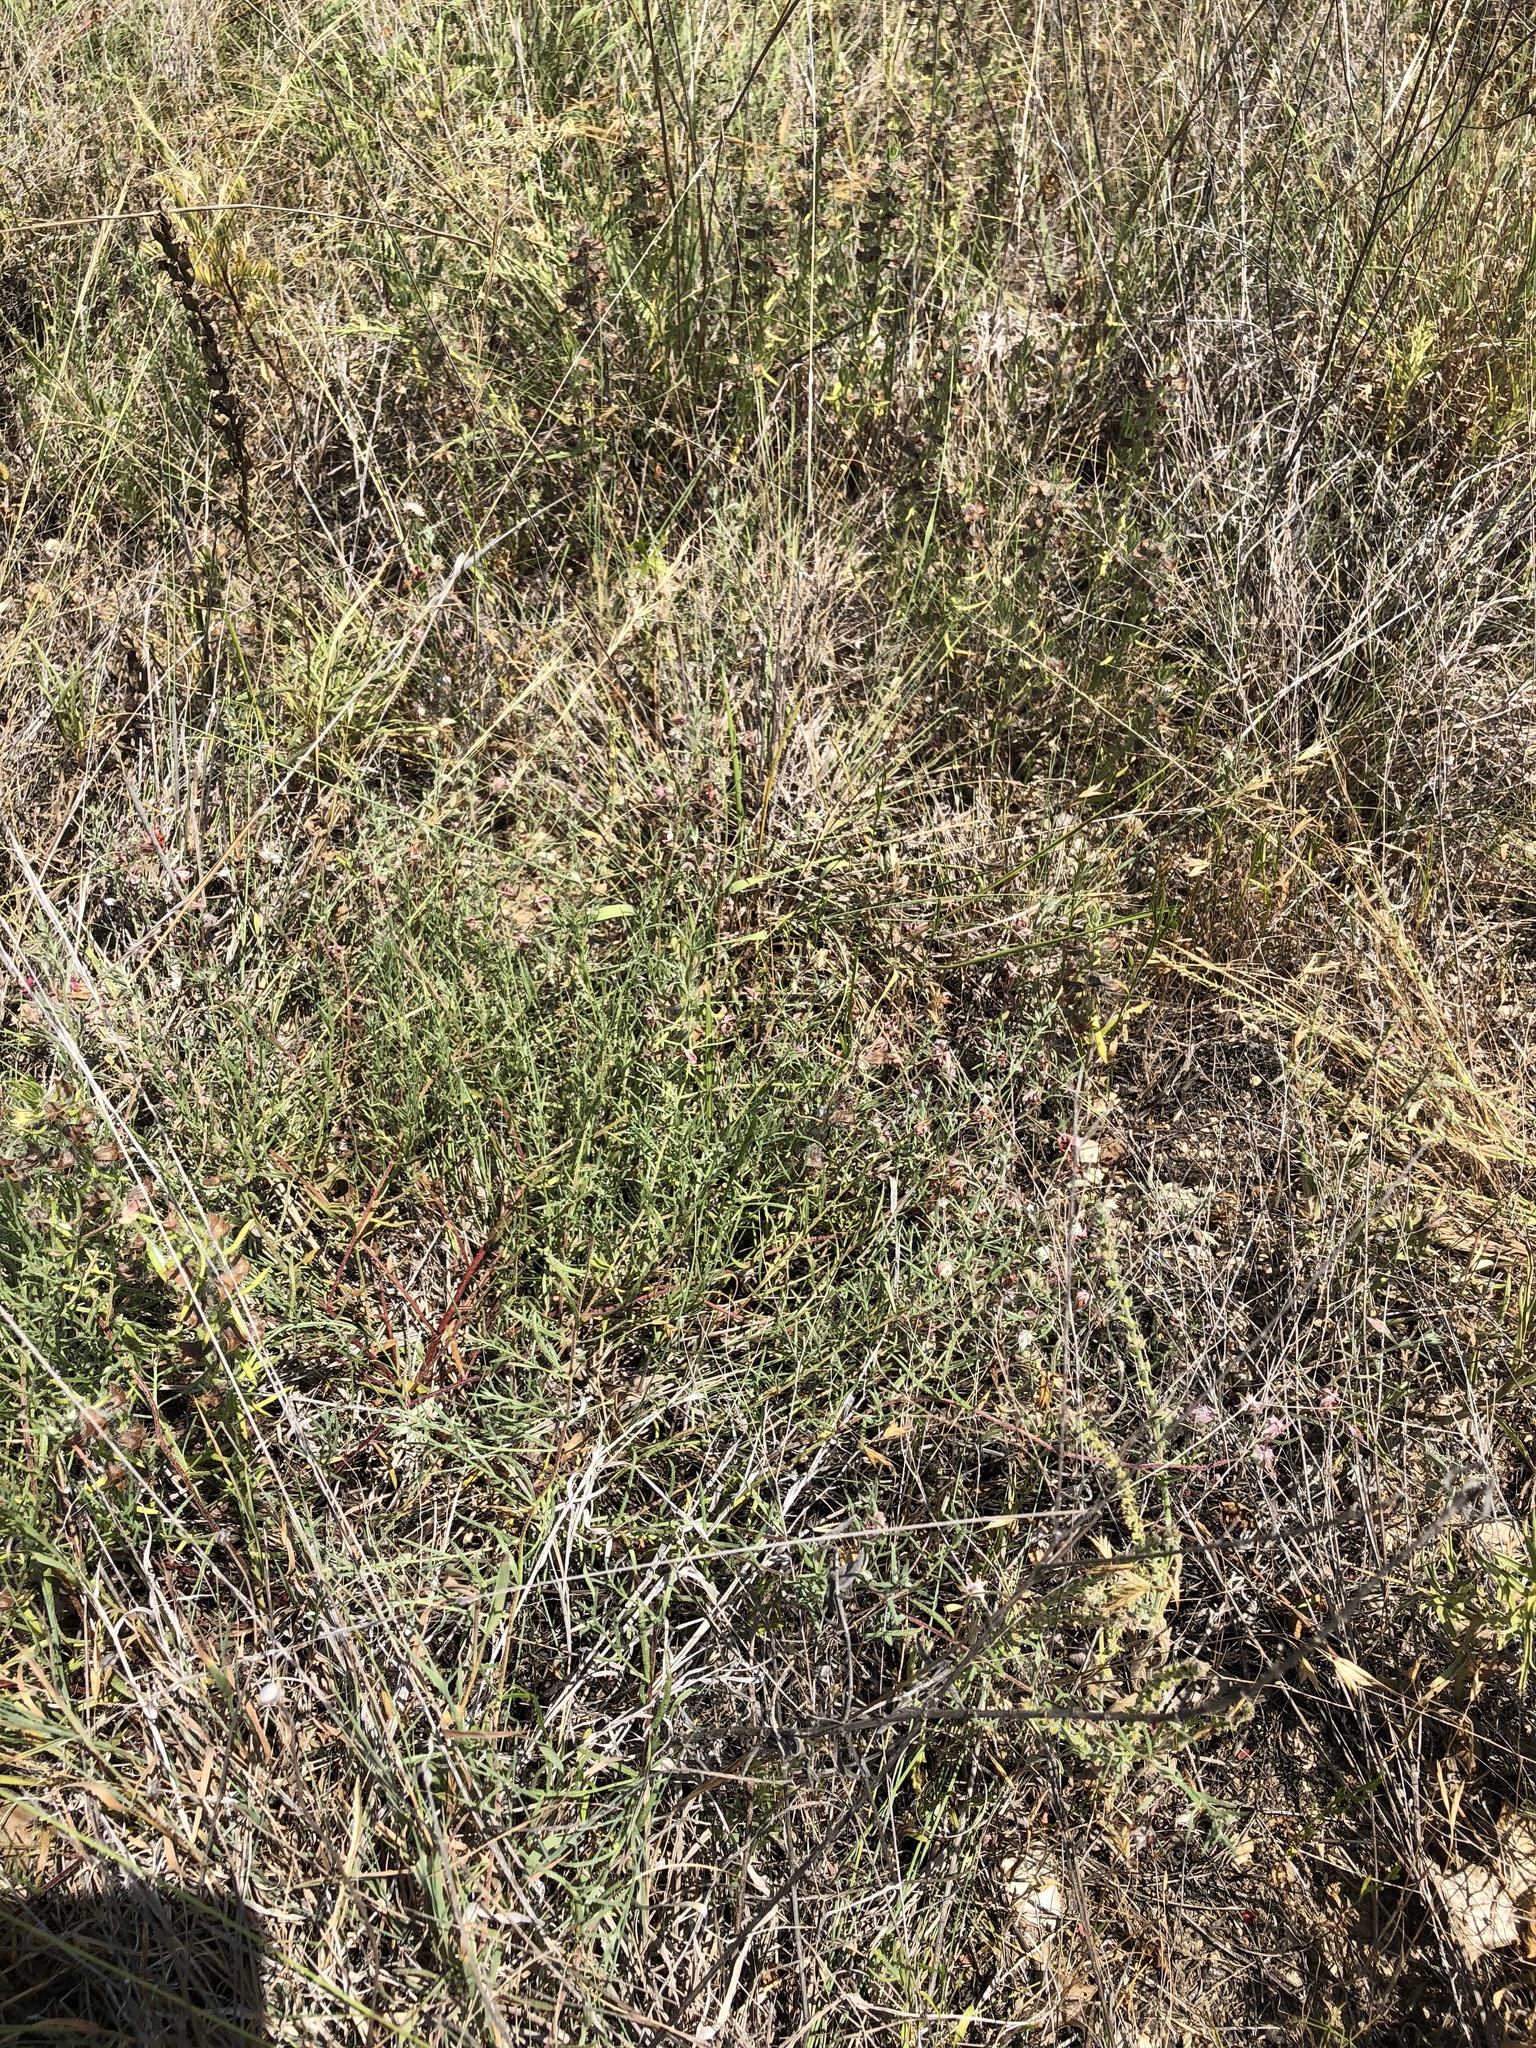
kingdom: Plantae
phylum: Tracheophyta
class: Magnoliopsida
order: Zygophyllales
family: Krameriaceae
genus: Krameria
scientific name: Krameria lanceolata
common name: Ratany
